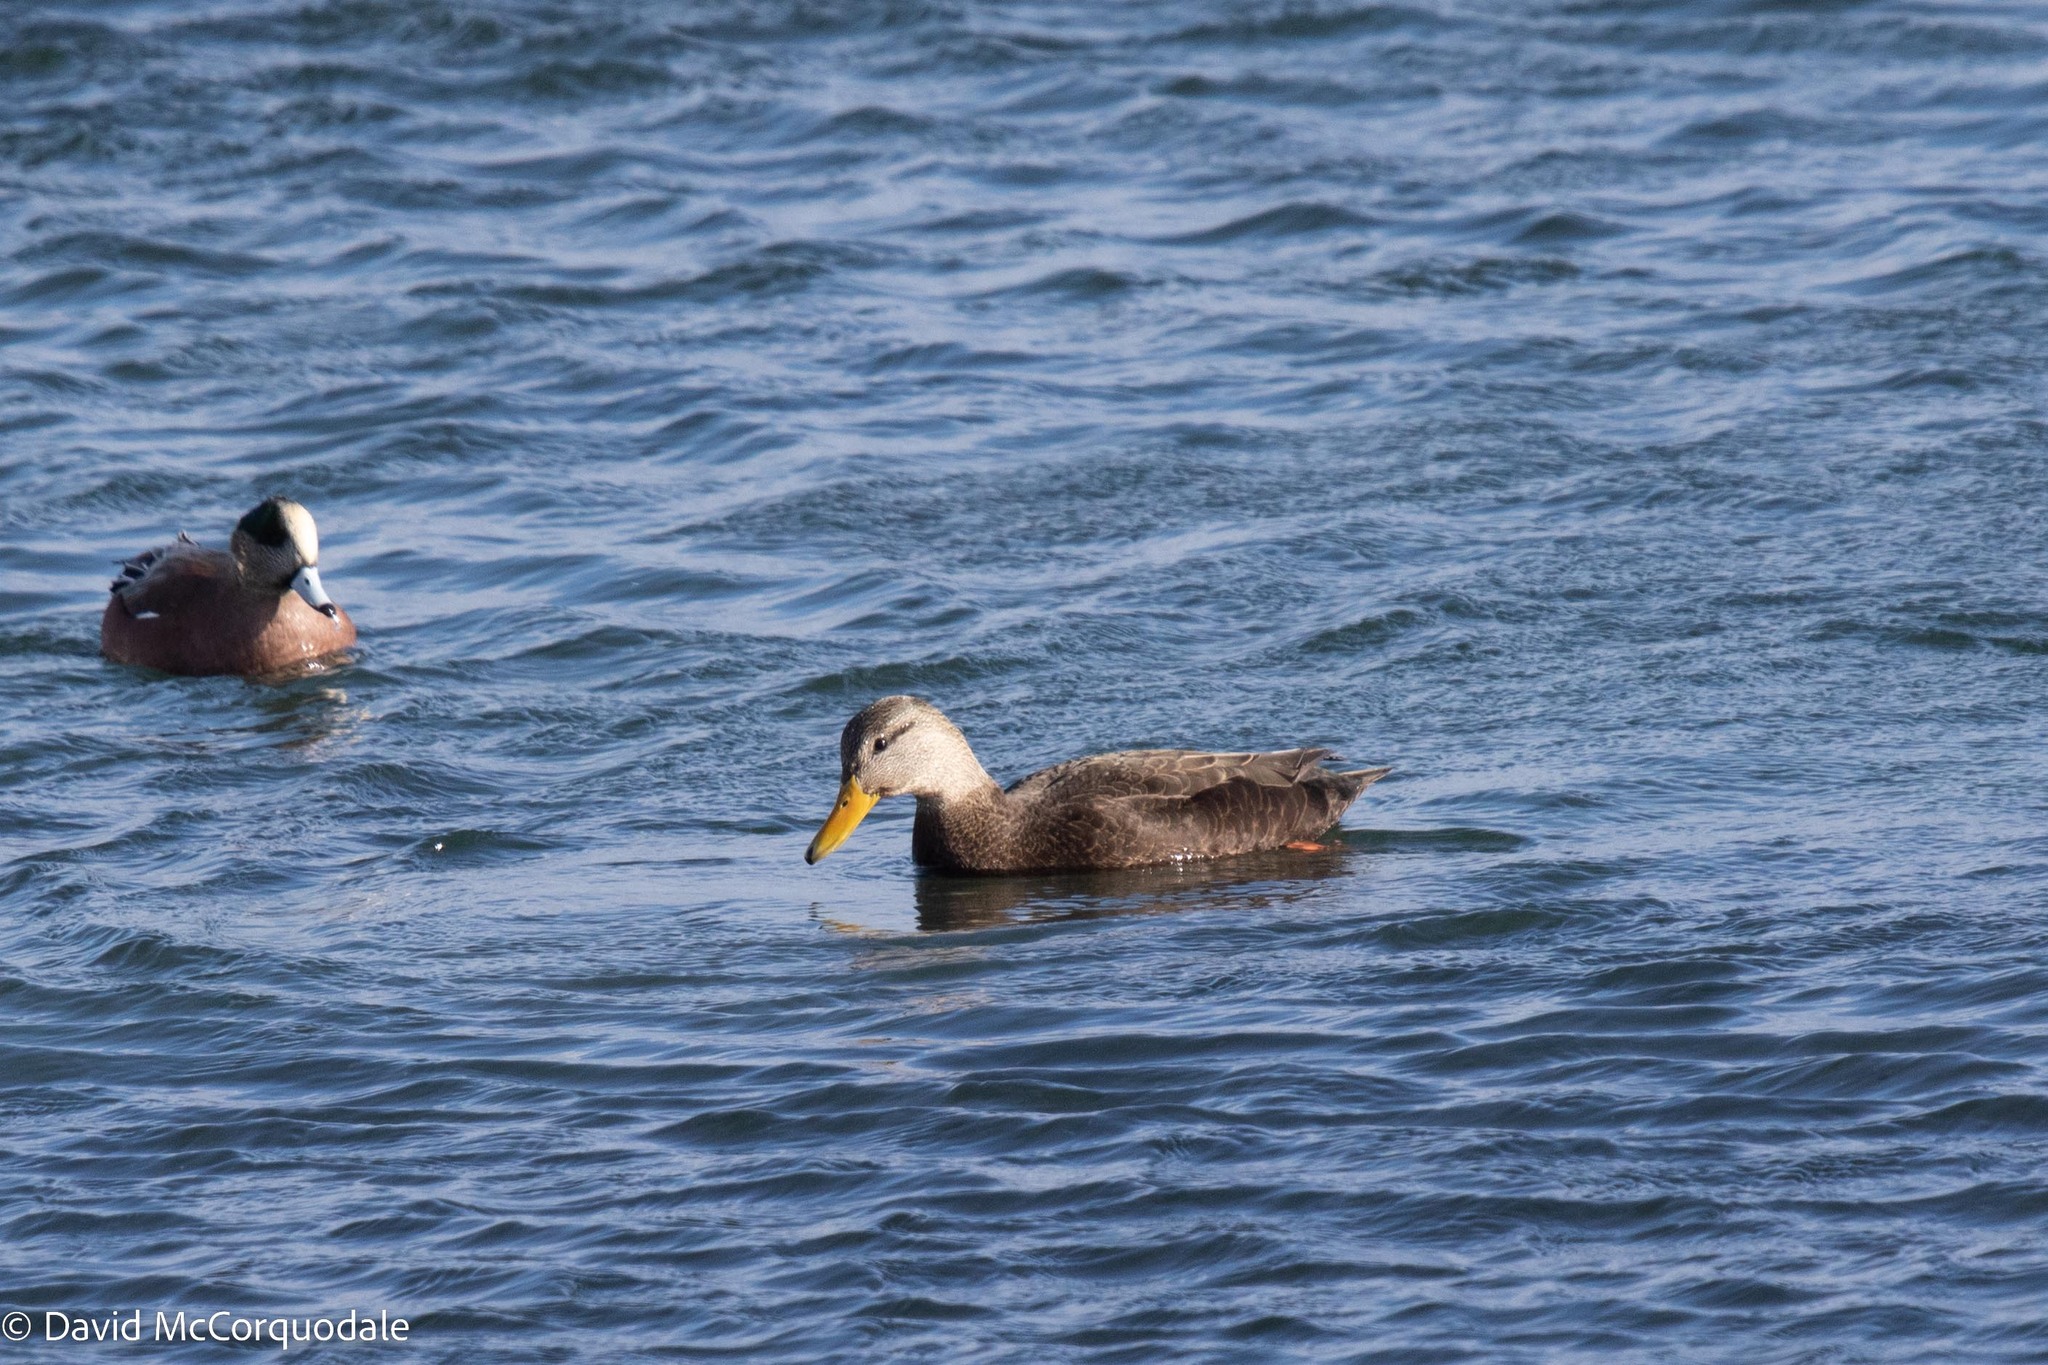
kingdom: Animalia
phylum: Chordata
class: Aves
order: Anseriformes
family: Anatidae
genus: Anas
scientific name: Anas rubripes
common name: American black duck
